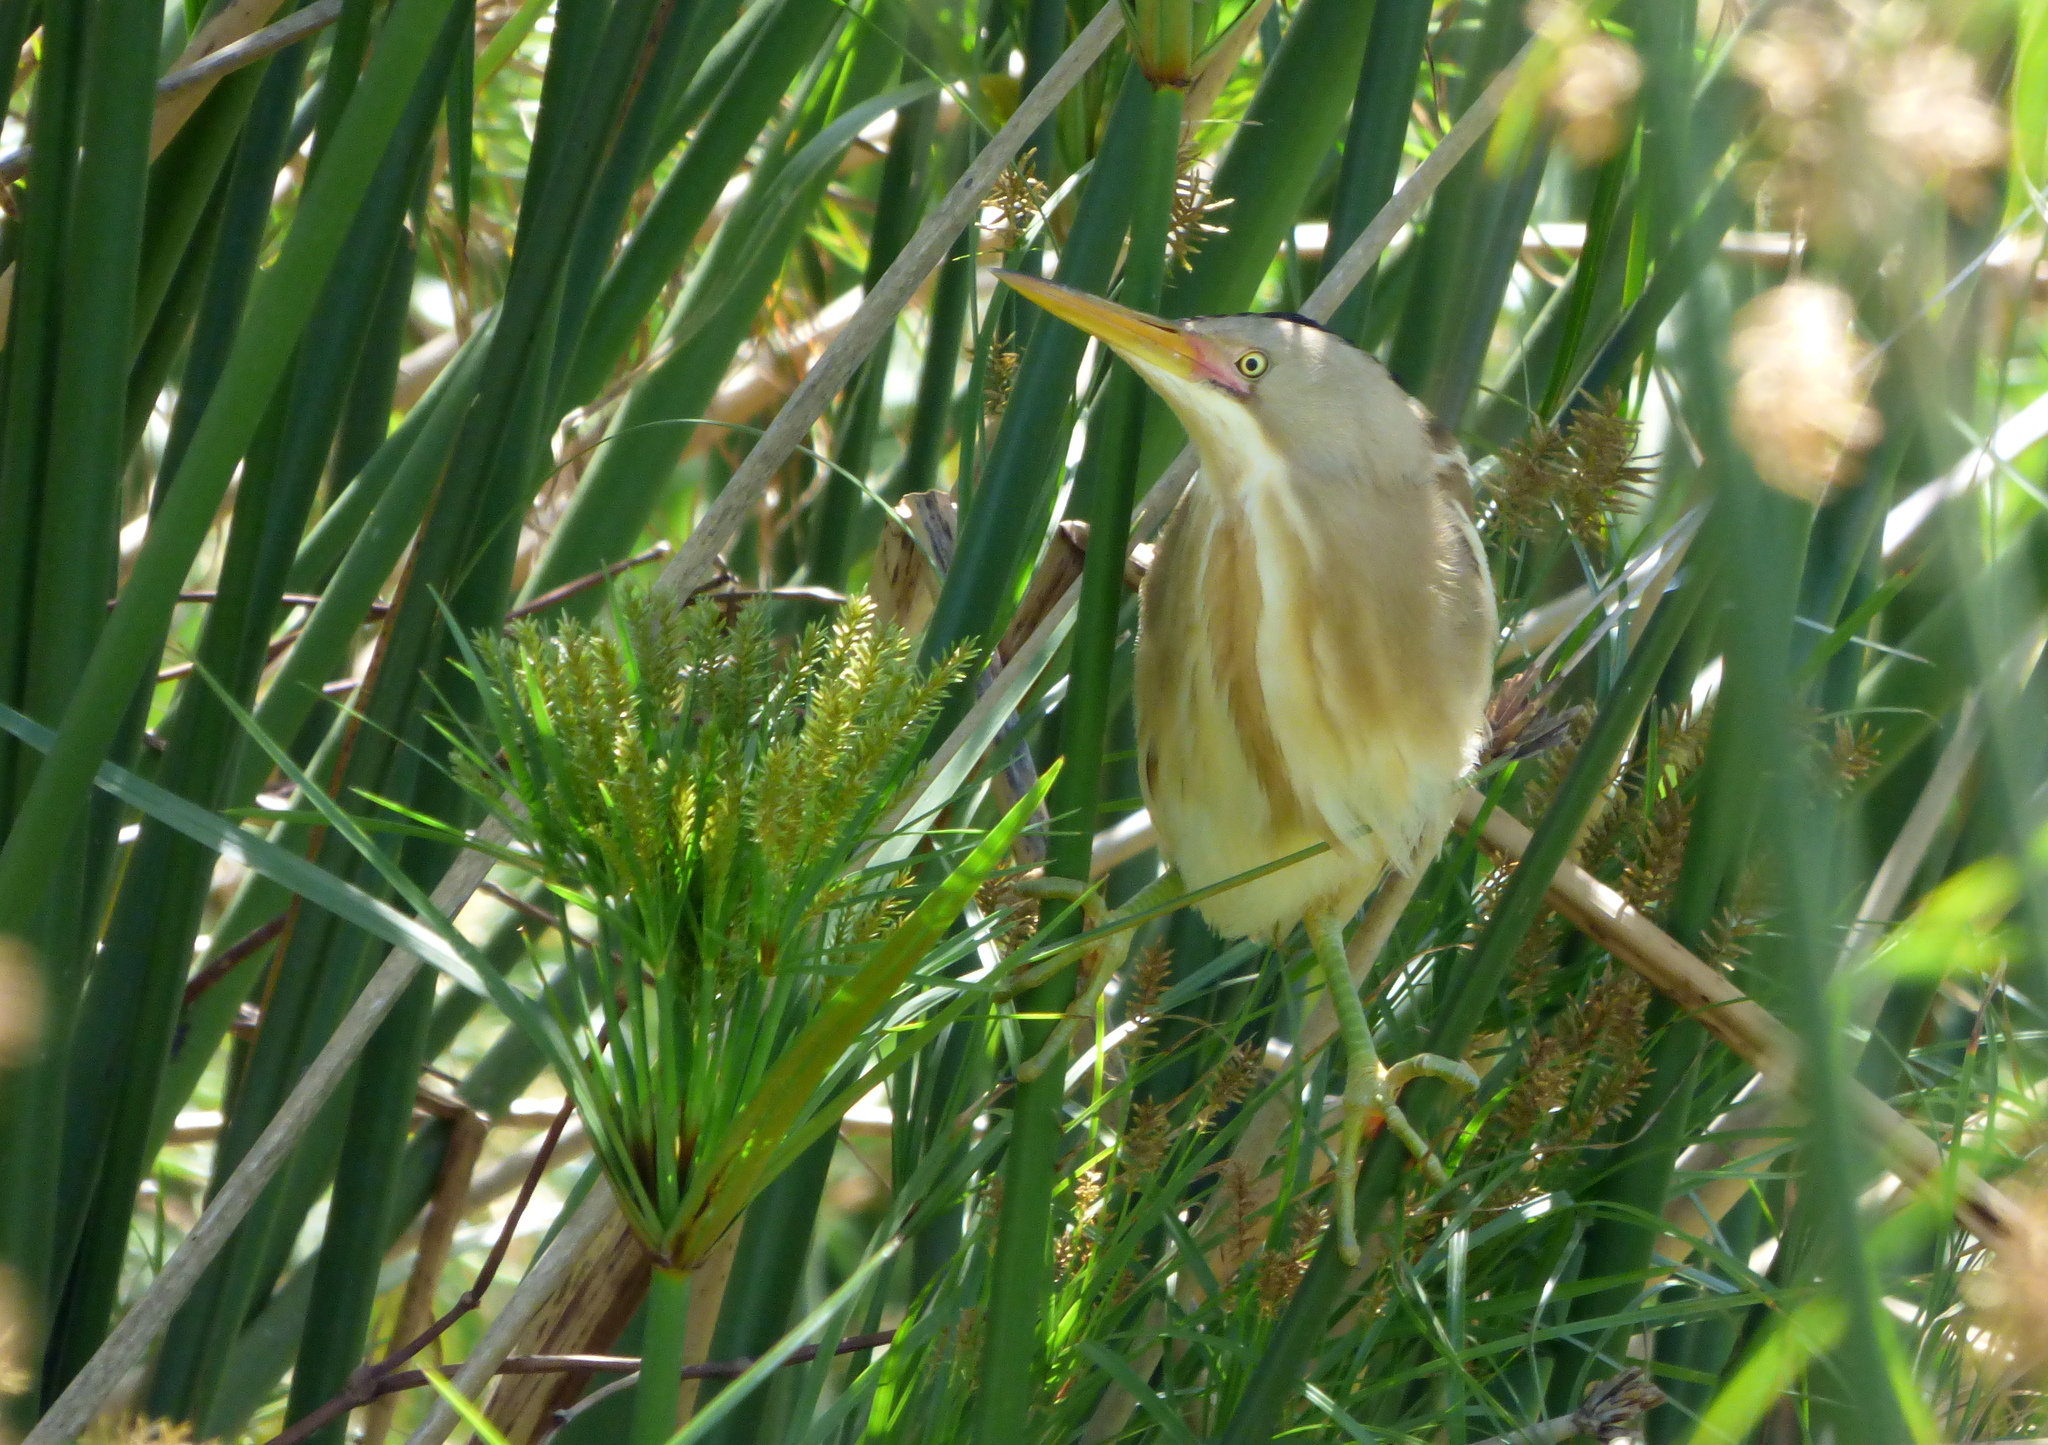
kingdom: Animalia
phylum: Chordata
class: Aves
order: Pelecaniformes
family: Ardeidae
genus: Ixobrychus
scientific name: Ixobrychus involucris
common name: Stripe-backed bittern
